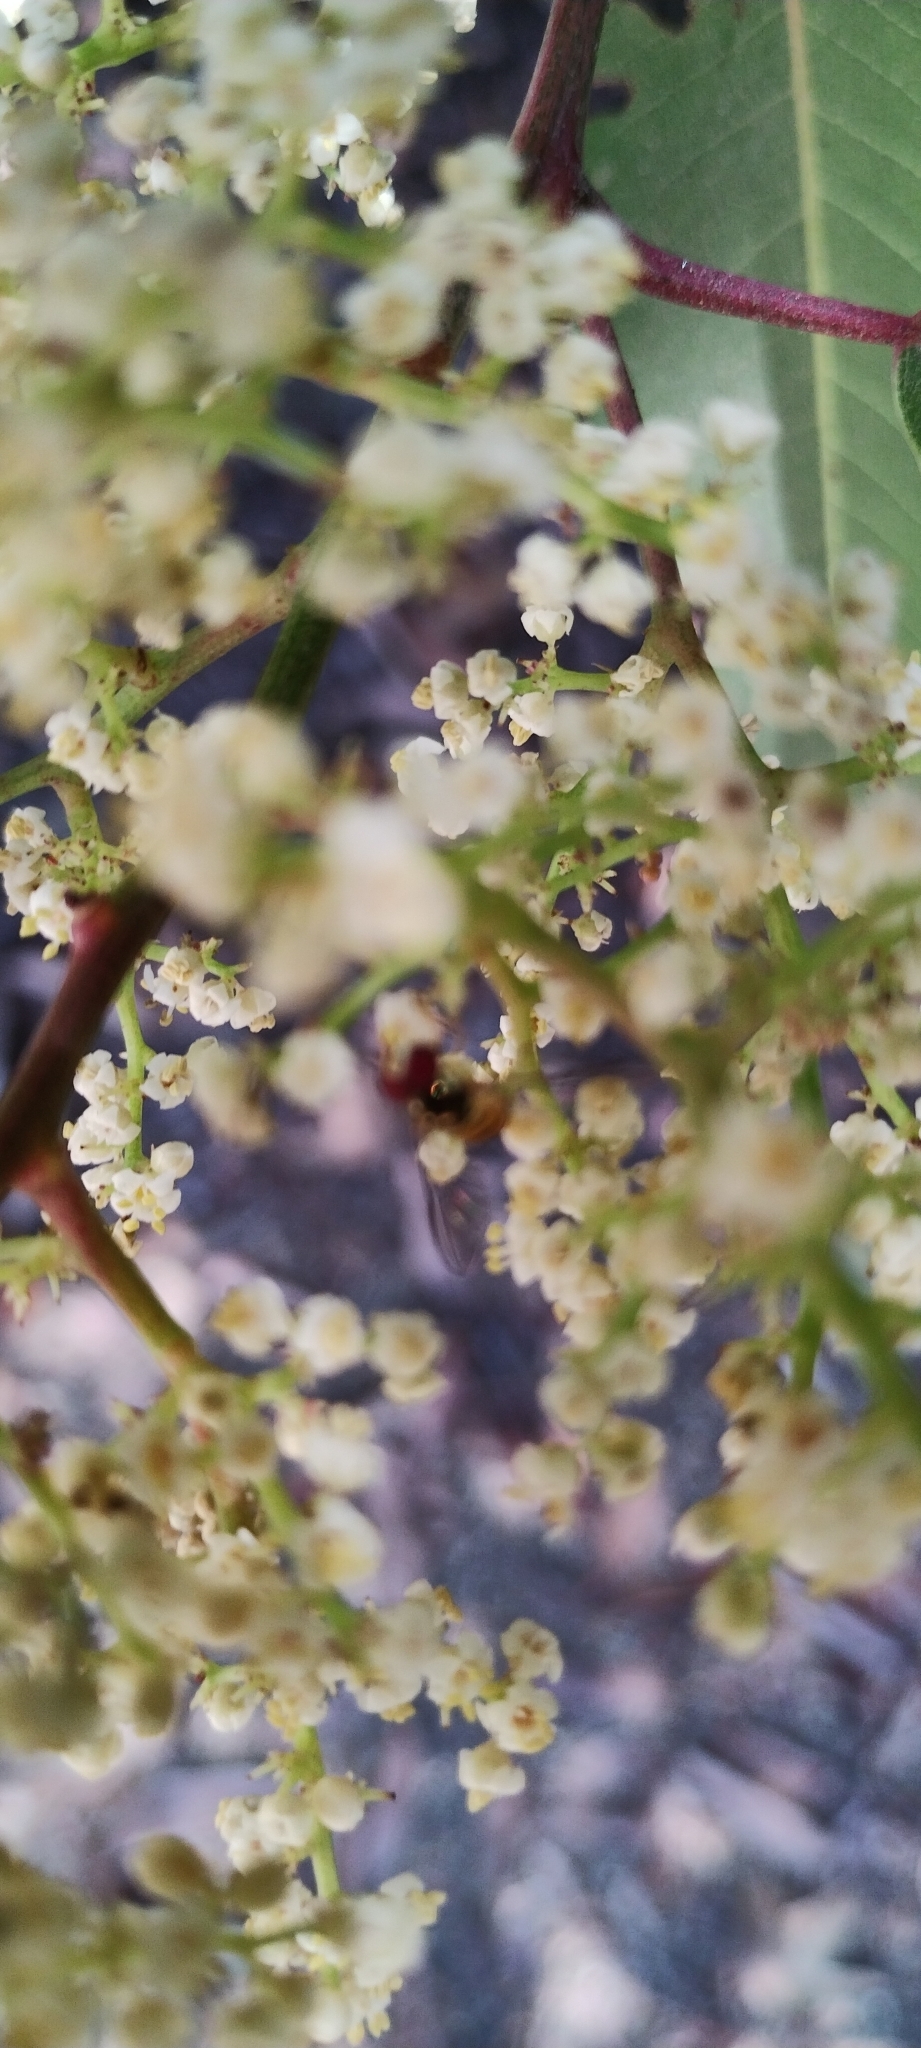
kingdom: Animalia
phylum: Arthropoda
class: Insecta
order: Diptera
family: Syrphidae
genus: Allograpta
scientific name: Allograpta obliqua
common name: Common oblique syrphid
